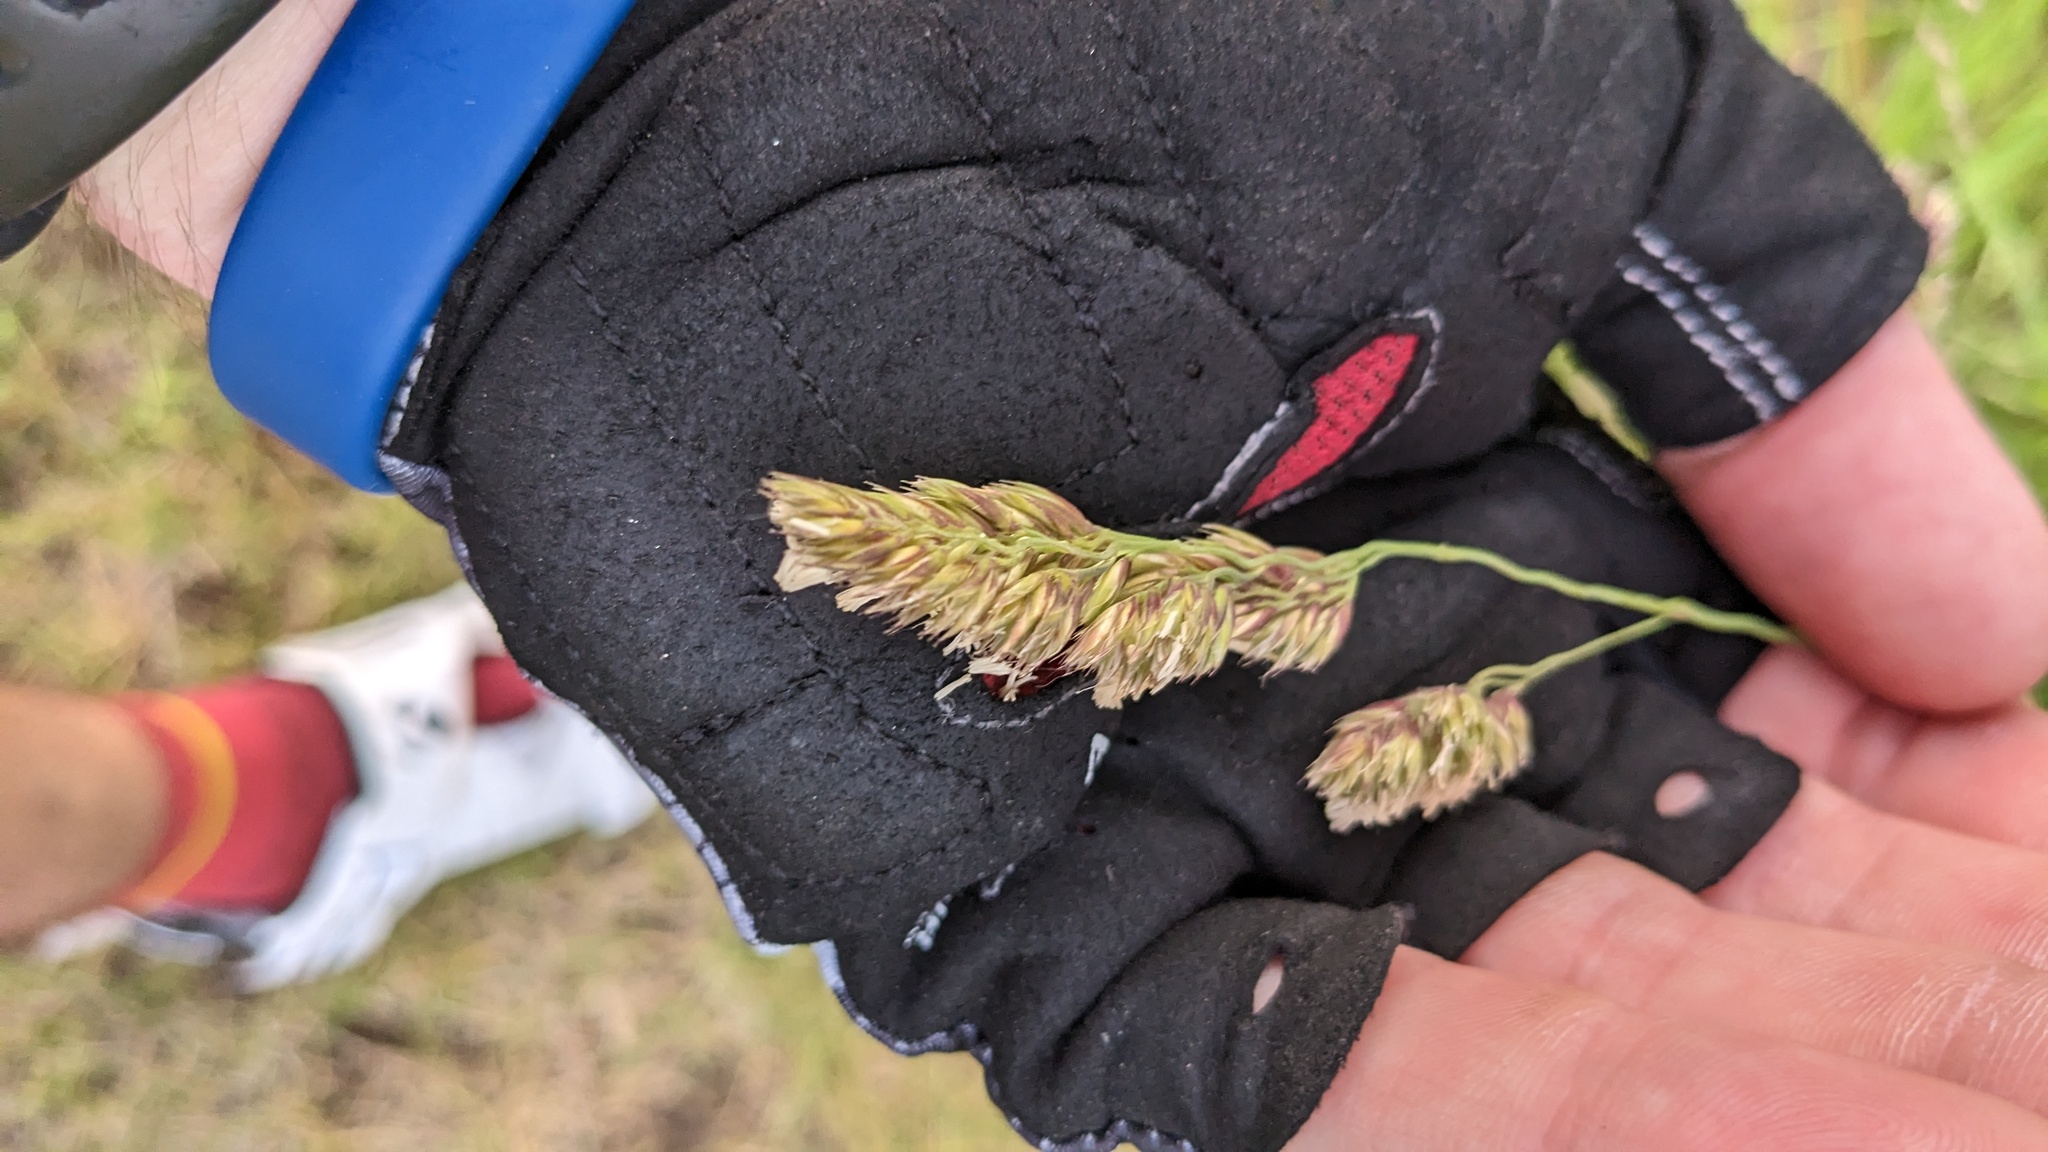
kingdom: Plantae
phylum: Tracheophyta
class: Liliopsida
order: Poales
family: Poaceae
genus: Dactylis
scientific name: Dactylis glomerata
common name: Orchardgrass
